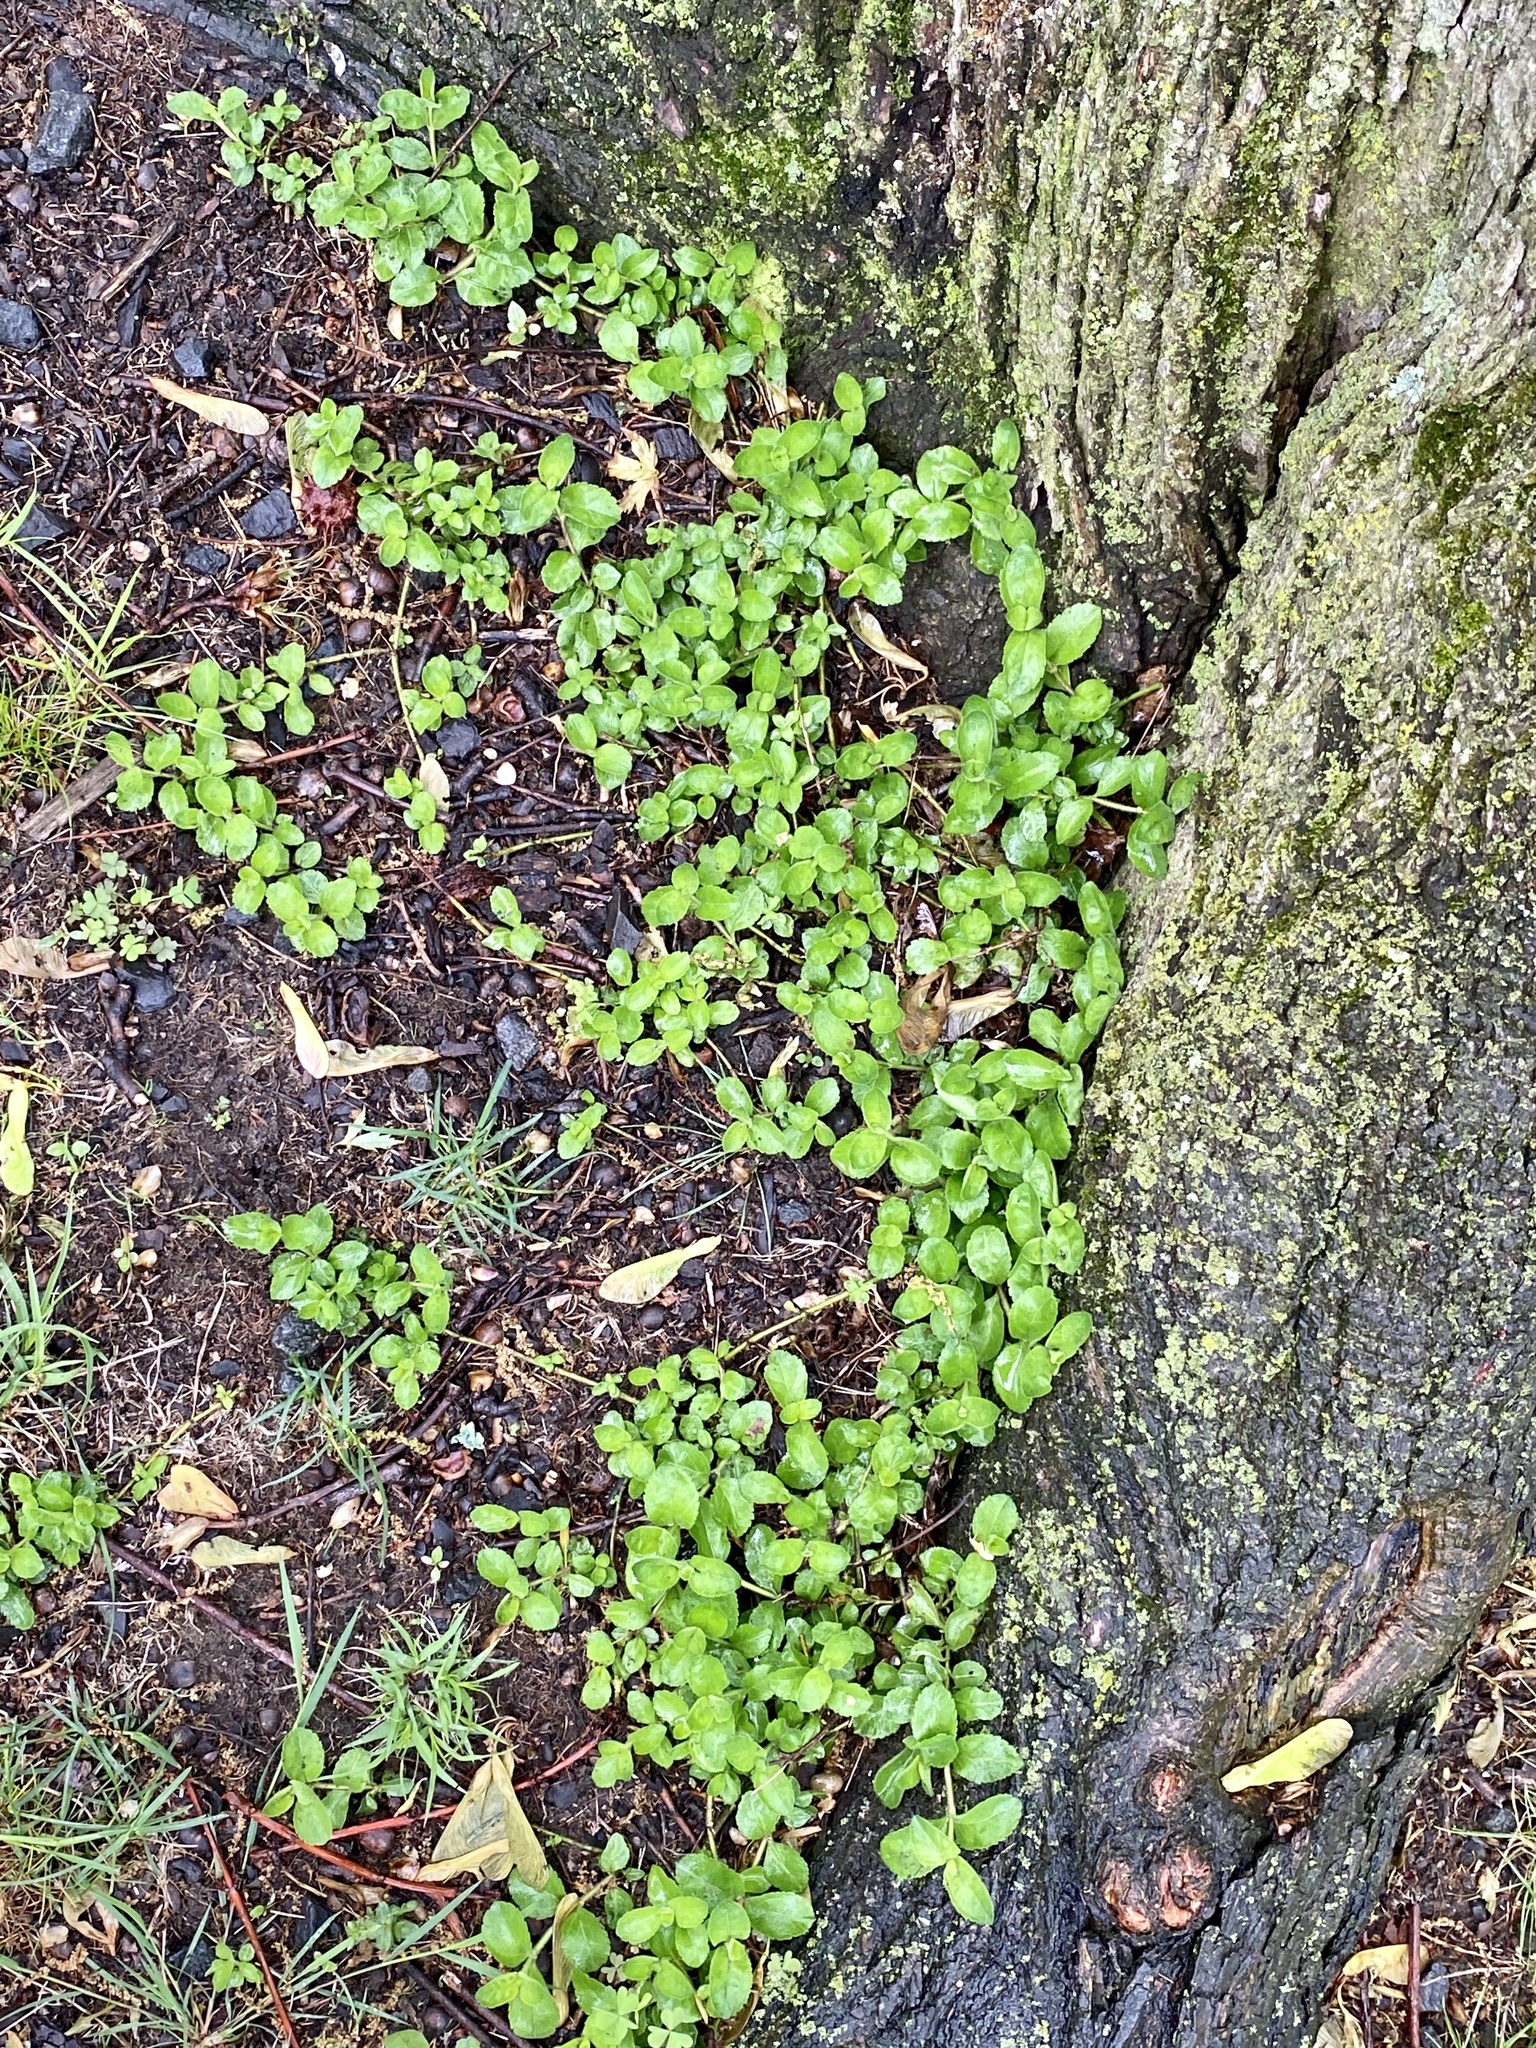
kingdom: Plantae
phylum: Tracheophyta
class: Magnoliopsida
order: Lamiales
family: Plantaginaceae
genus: Veronica
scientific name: Veronica officinalis
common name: Common speedwell
